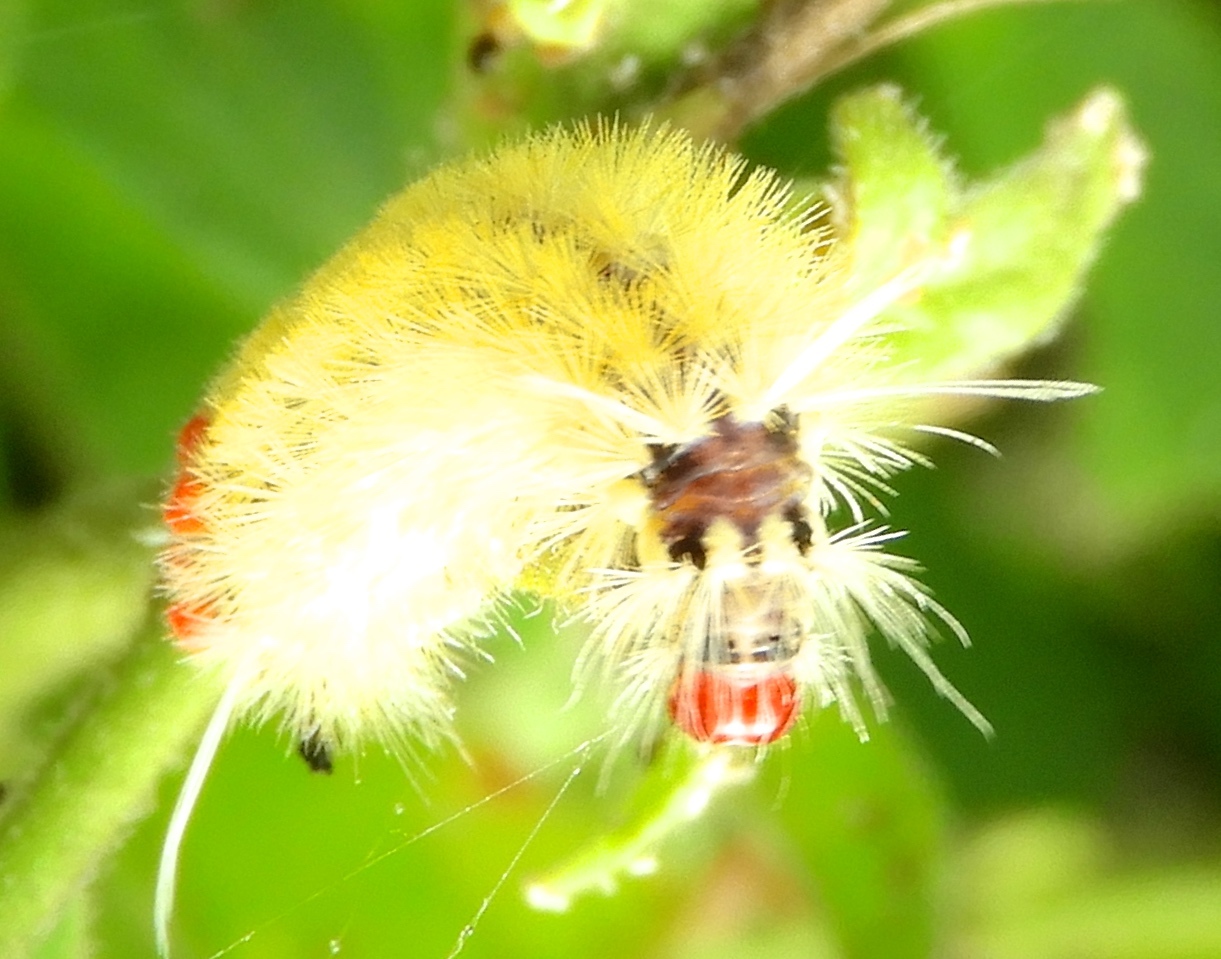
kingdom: Animalia
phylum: Arthropoda
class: Insecta
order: Lepidoptera
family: Erebidae
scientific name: Erebidae
